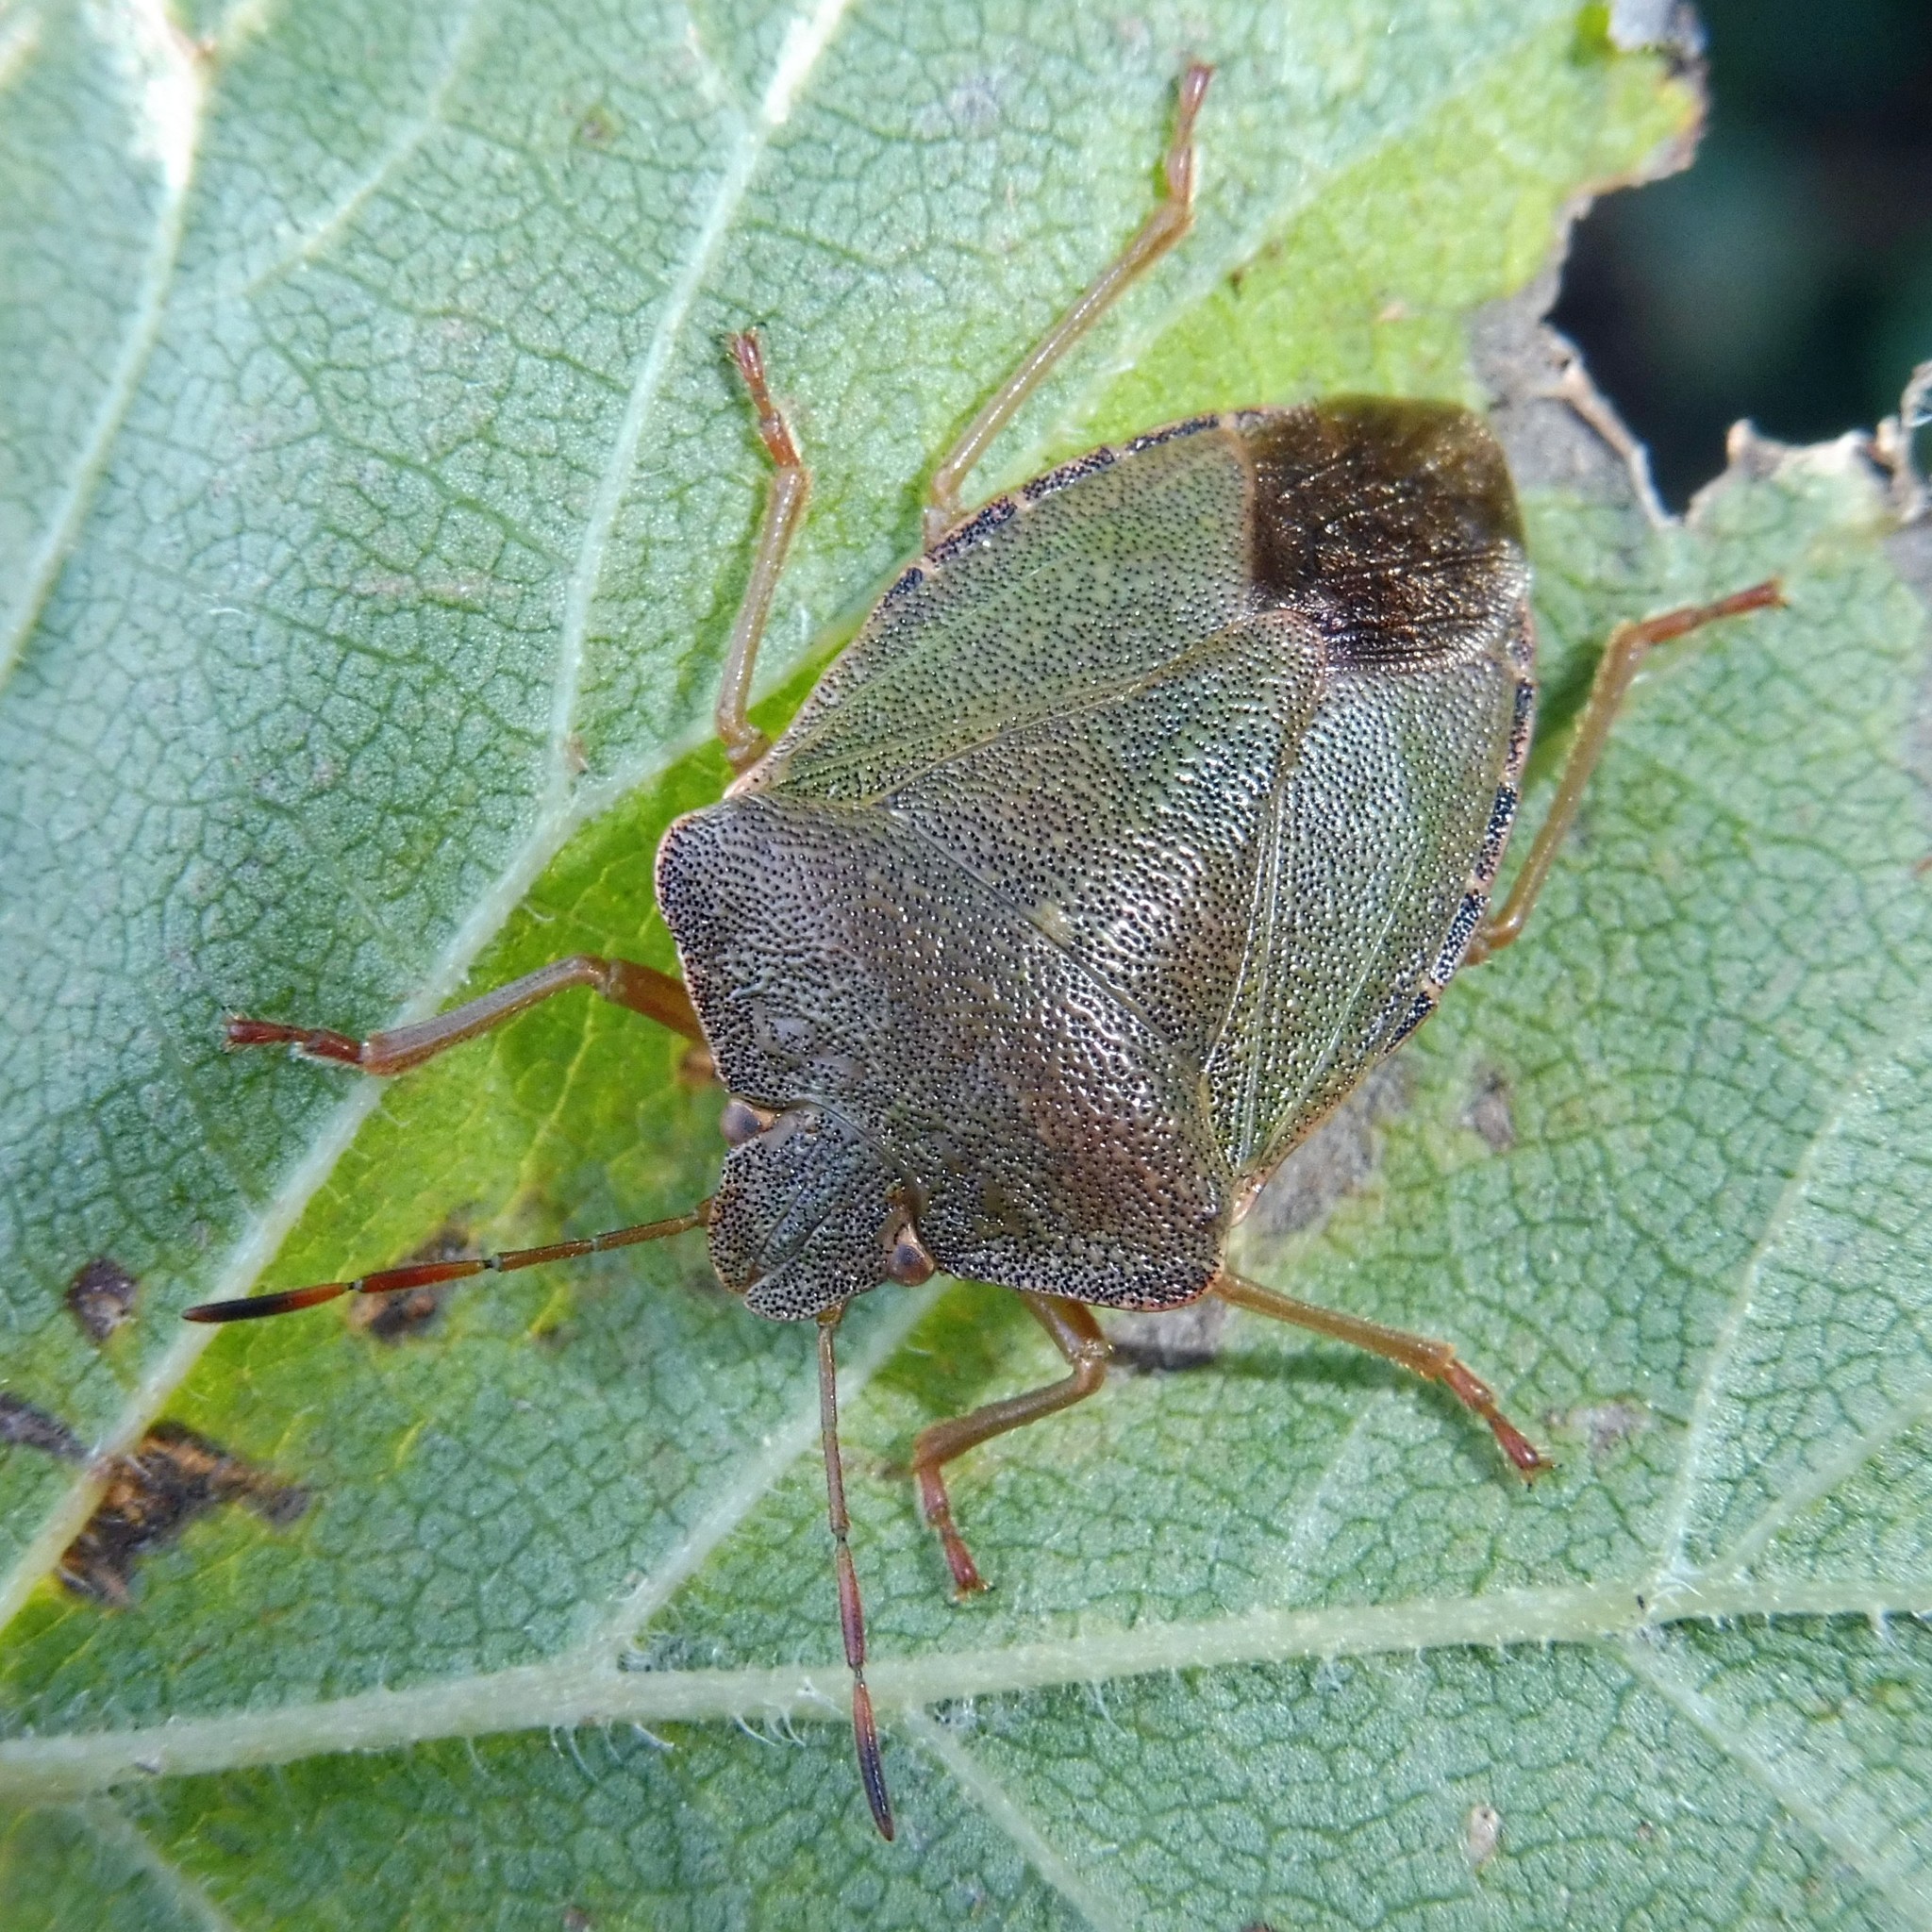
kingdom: Animalia
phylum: Arthropoda
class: Insecta
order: Hemiptera
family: Pentatomidae
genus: Palomena
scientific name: Palomena prasina
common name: Green shieldbug
